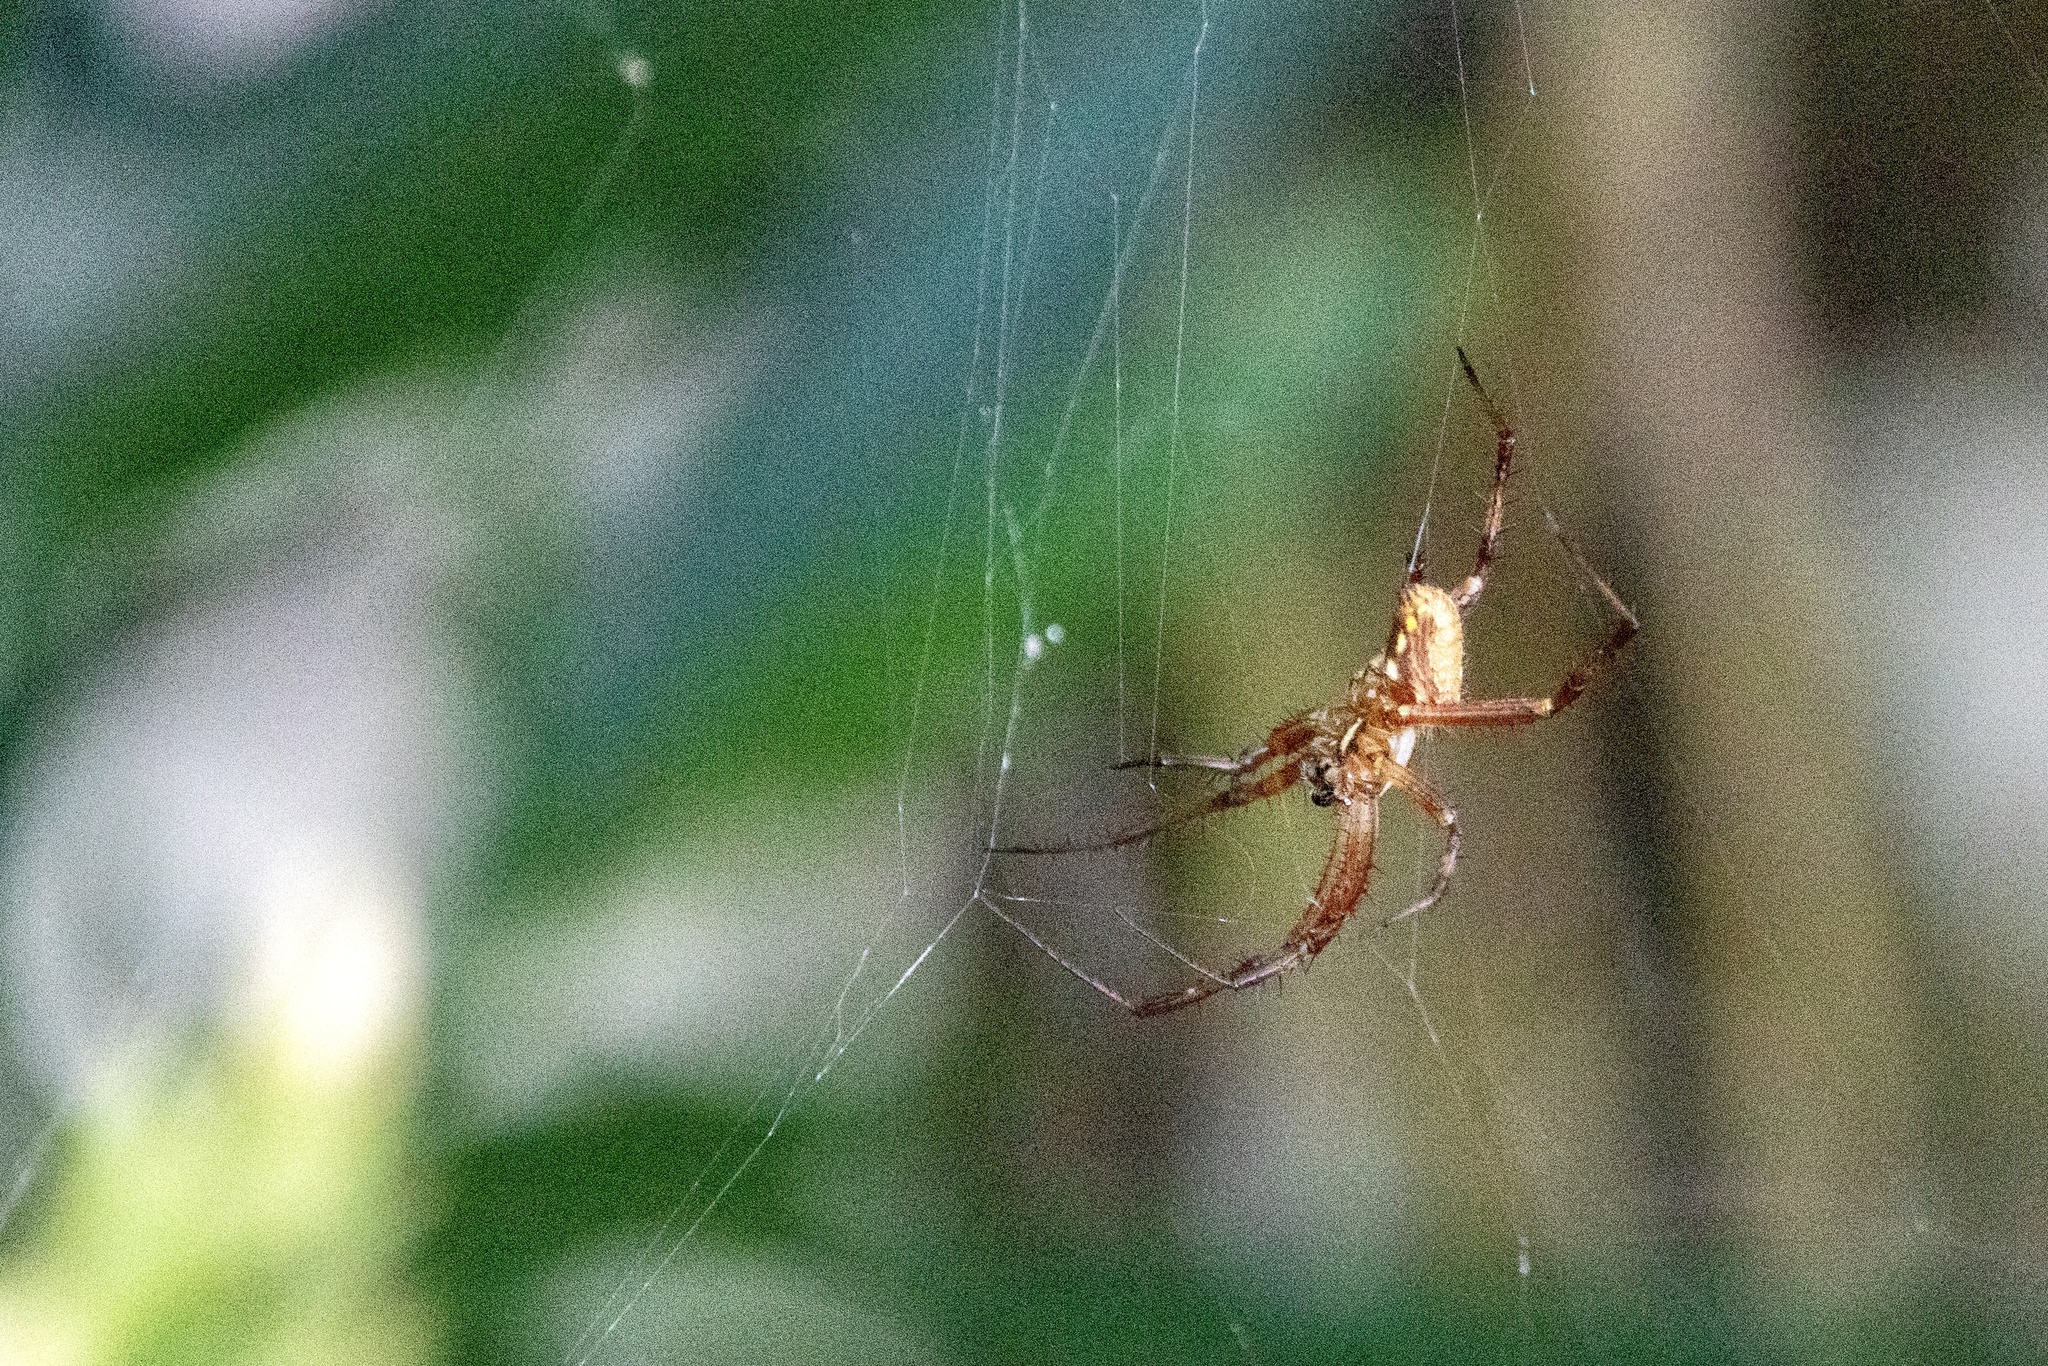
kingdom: Animalia
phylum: Arthropoda
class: Arachnida
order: Araneae
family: Araneidae
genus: Neoscona
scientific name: Neoscona oaxacensis
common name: Orb weavers
